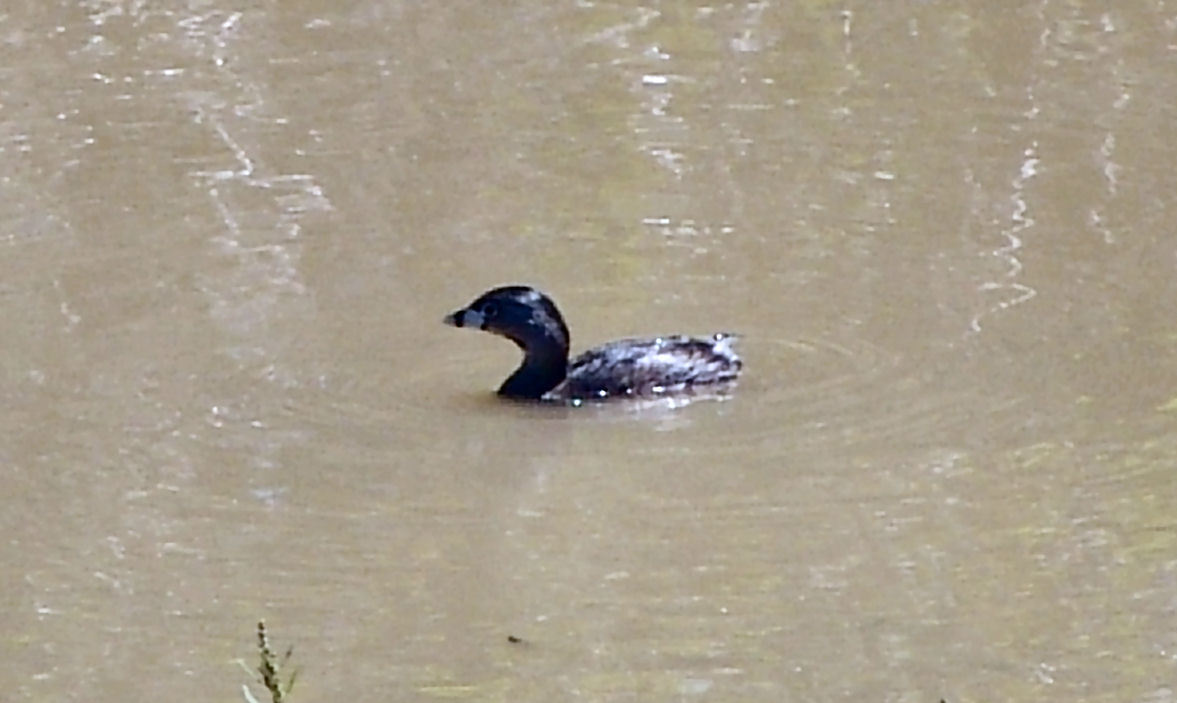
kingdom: Animalia
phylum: Chordata
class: Aves
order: Podicipediformes
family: Podicipedidae
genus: Podilymbus
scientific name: Podilymbus podiceps
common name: Pied-billed grebe
